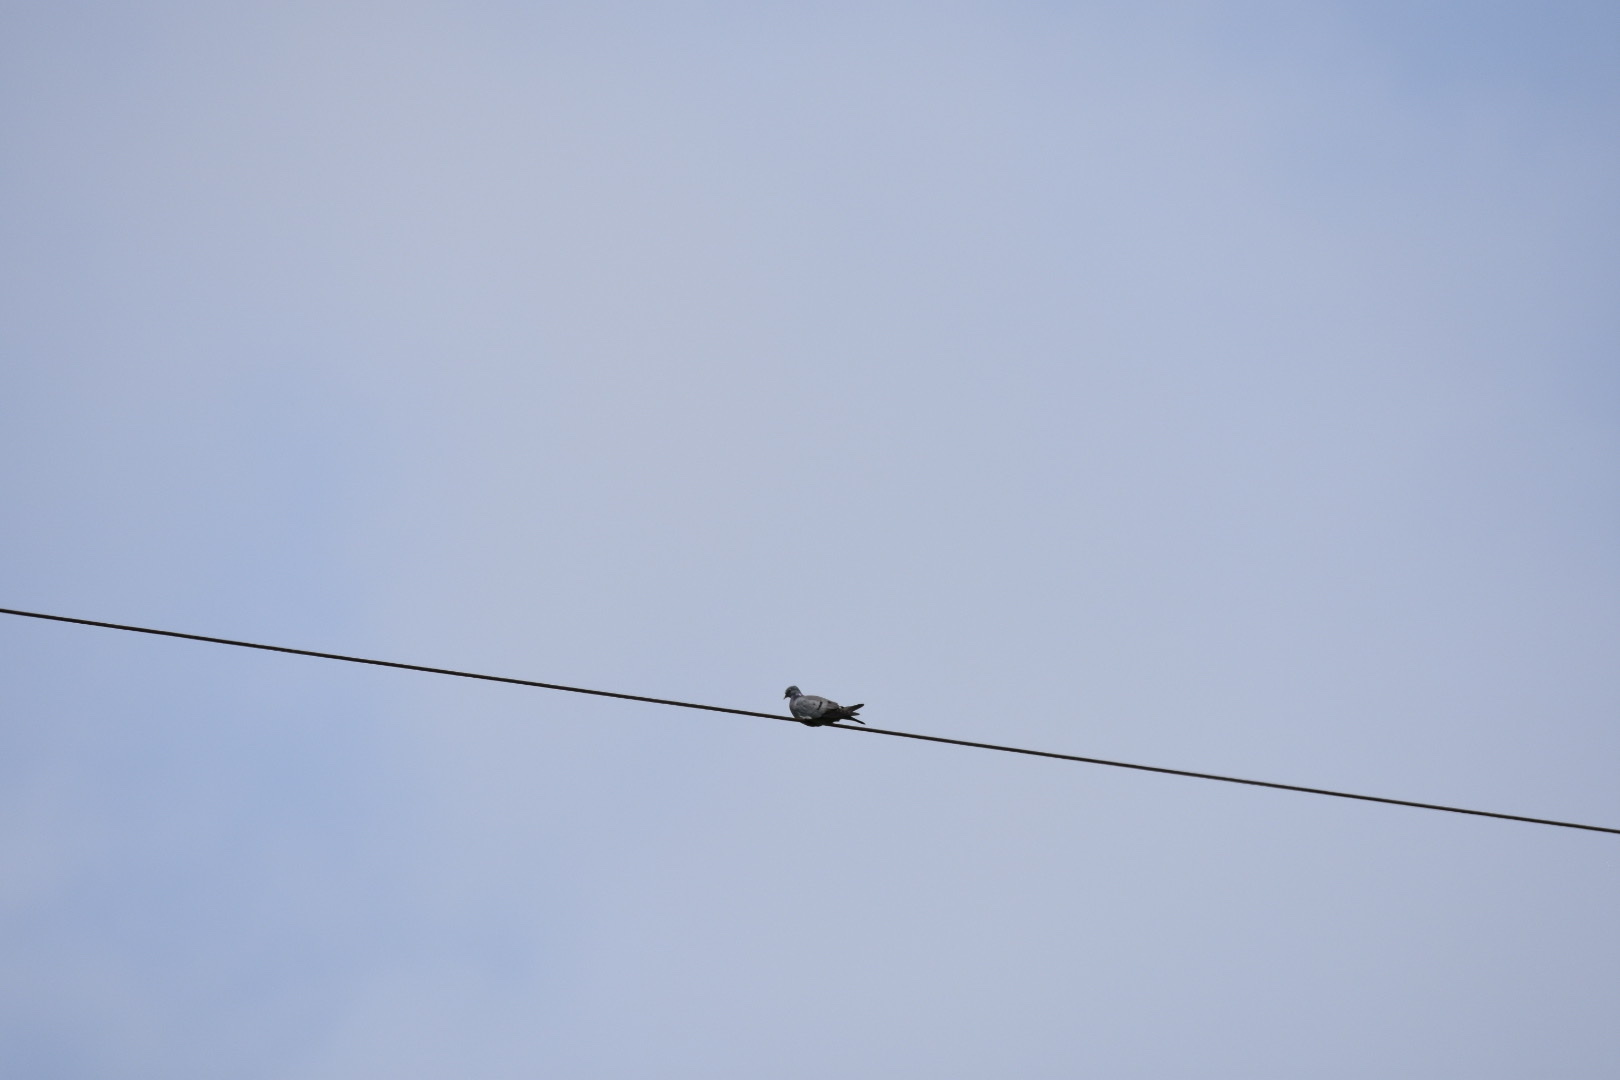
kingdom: Animalia
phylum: Chordata
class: Aves
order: Columbiformes
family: Columbidae
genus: Columba
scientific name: Columba palumbus
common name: Common wood pigeon
